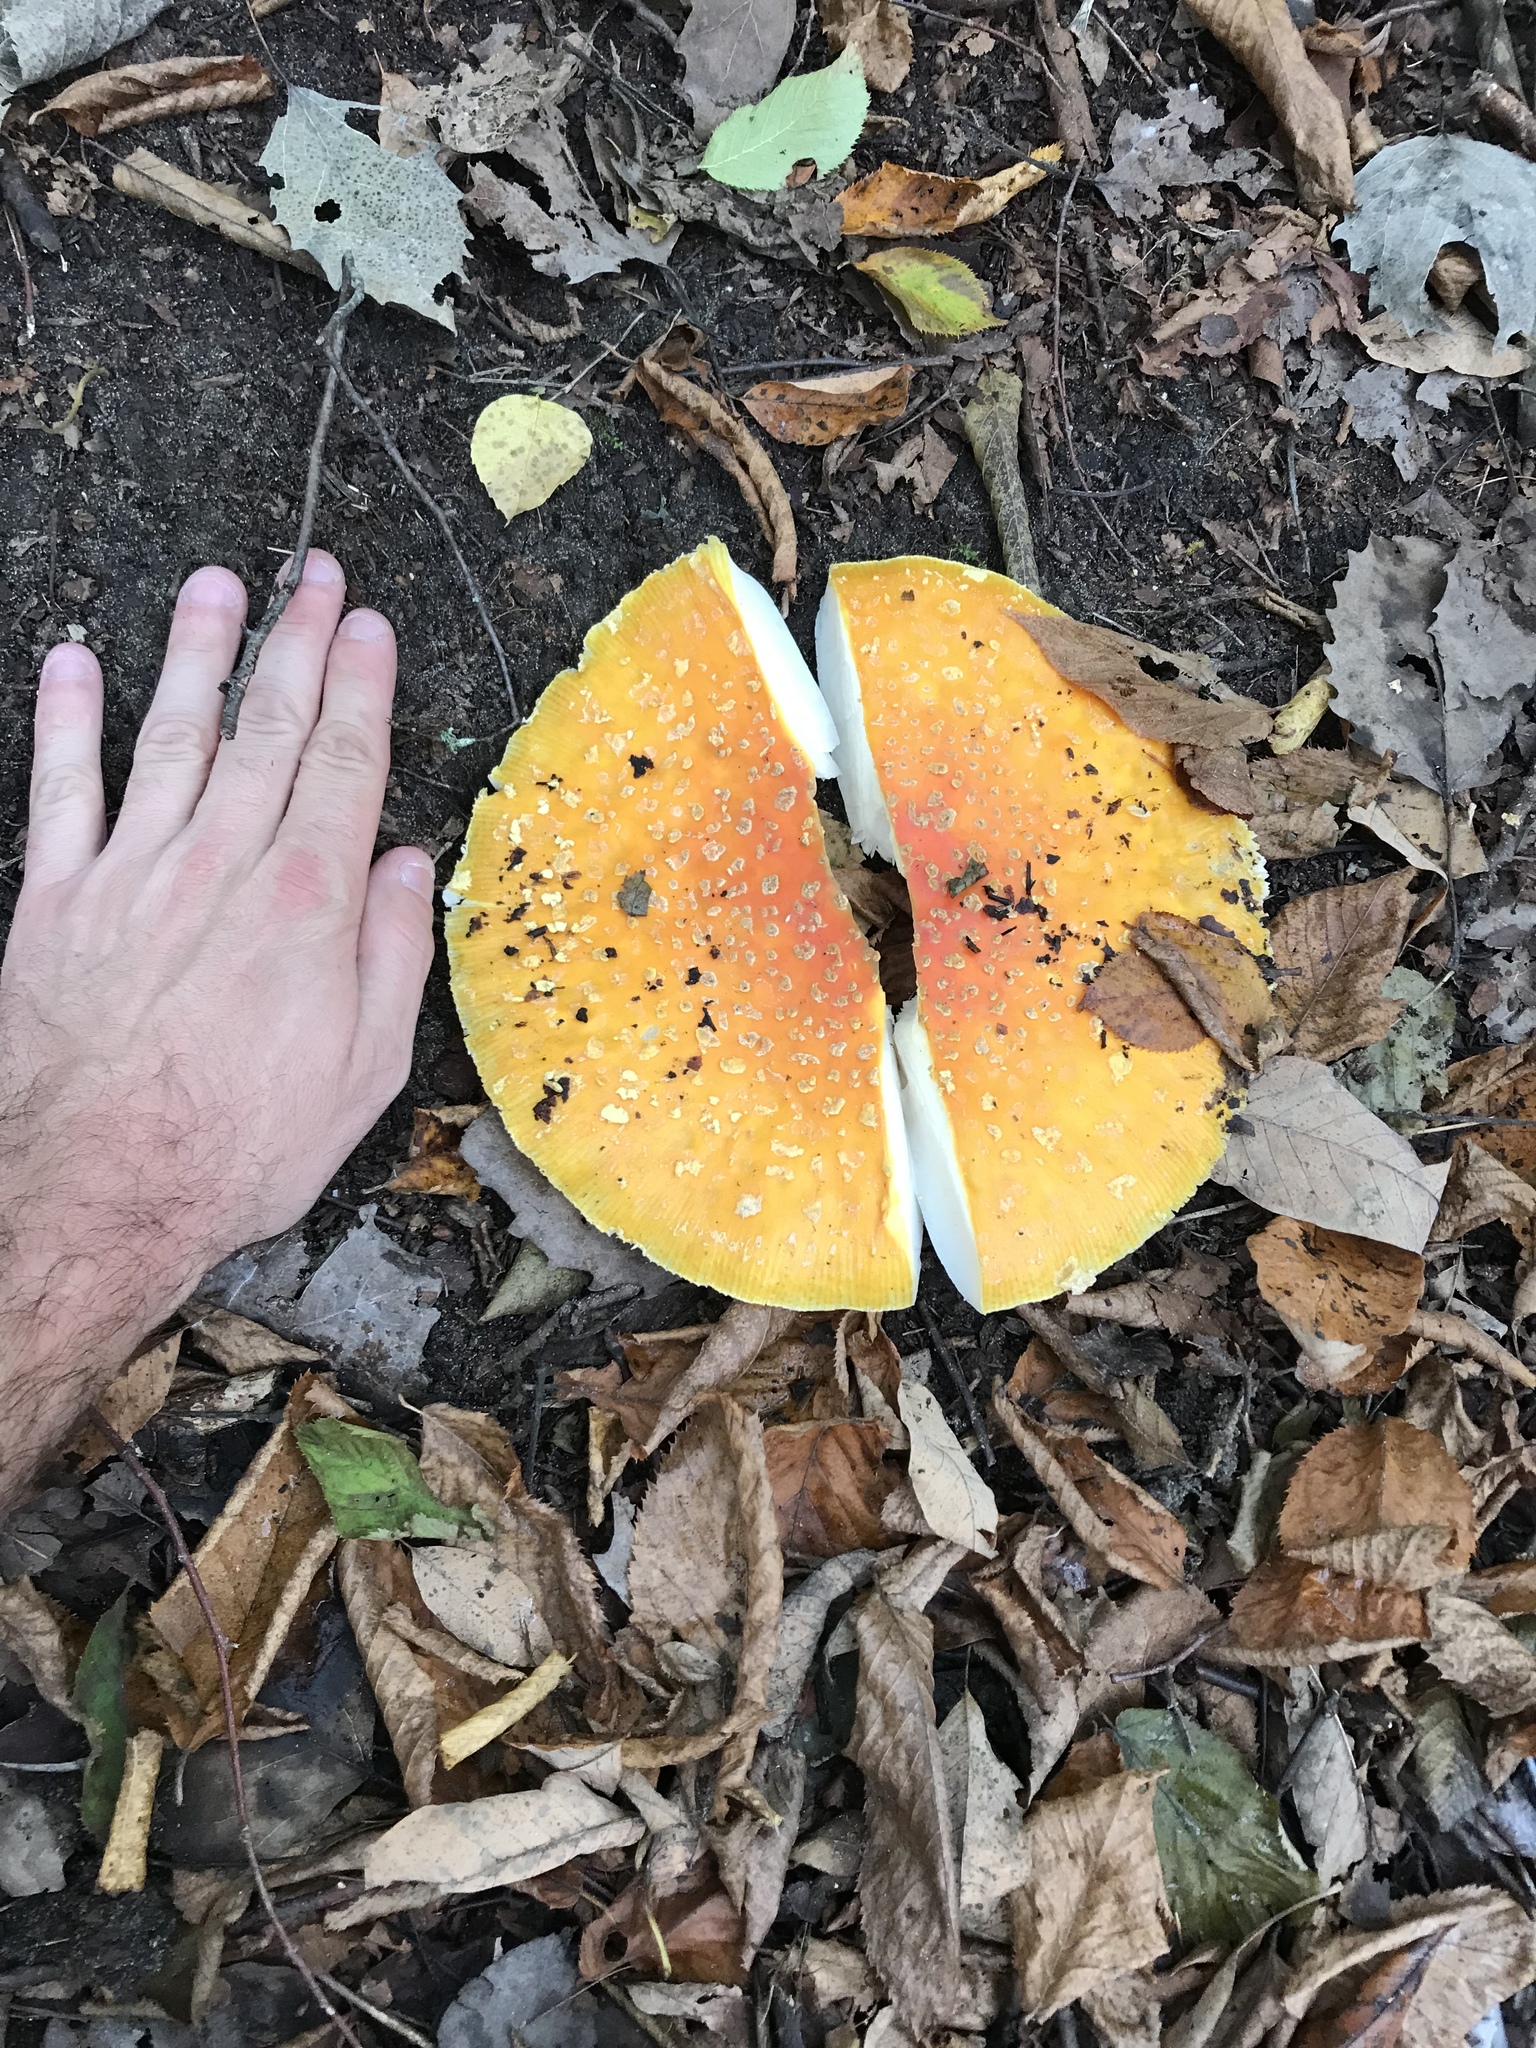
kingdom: Fungi
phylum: Basidiomycota
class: Agaricomycetes
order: Agaricales
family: Amanitaceae
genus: Amanita
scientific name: Amanita muscaria
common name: Fly agaric
